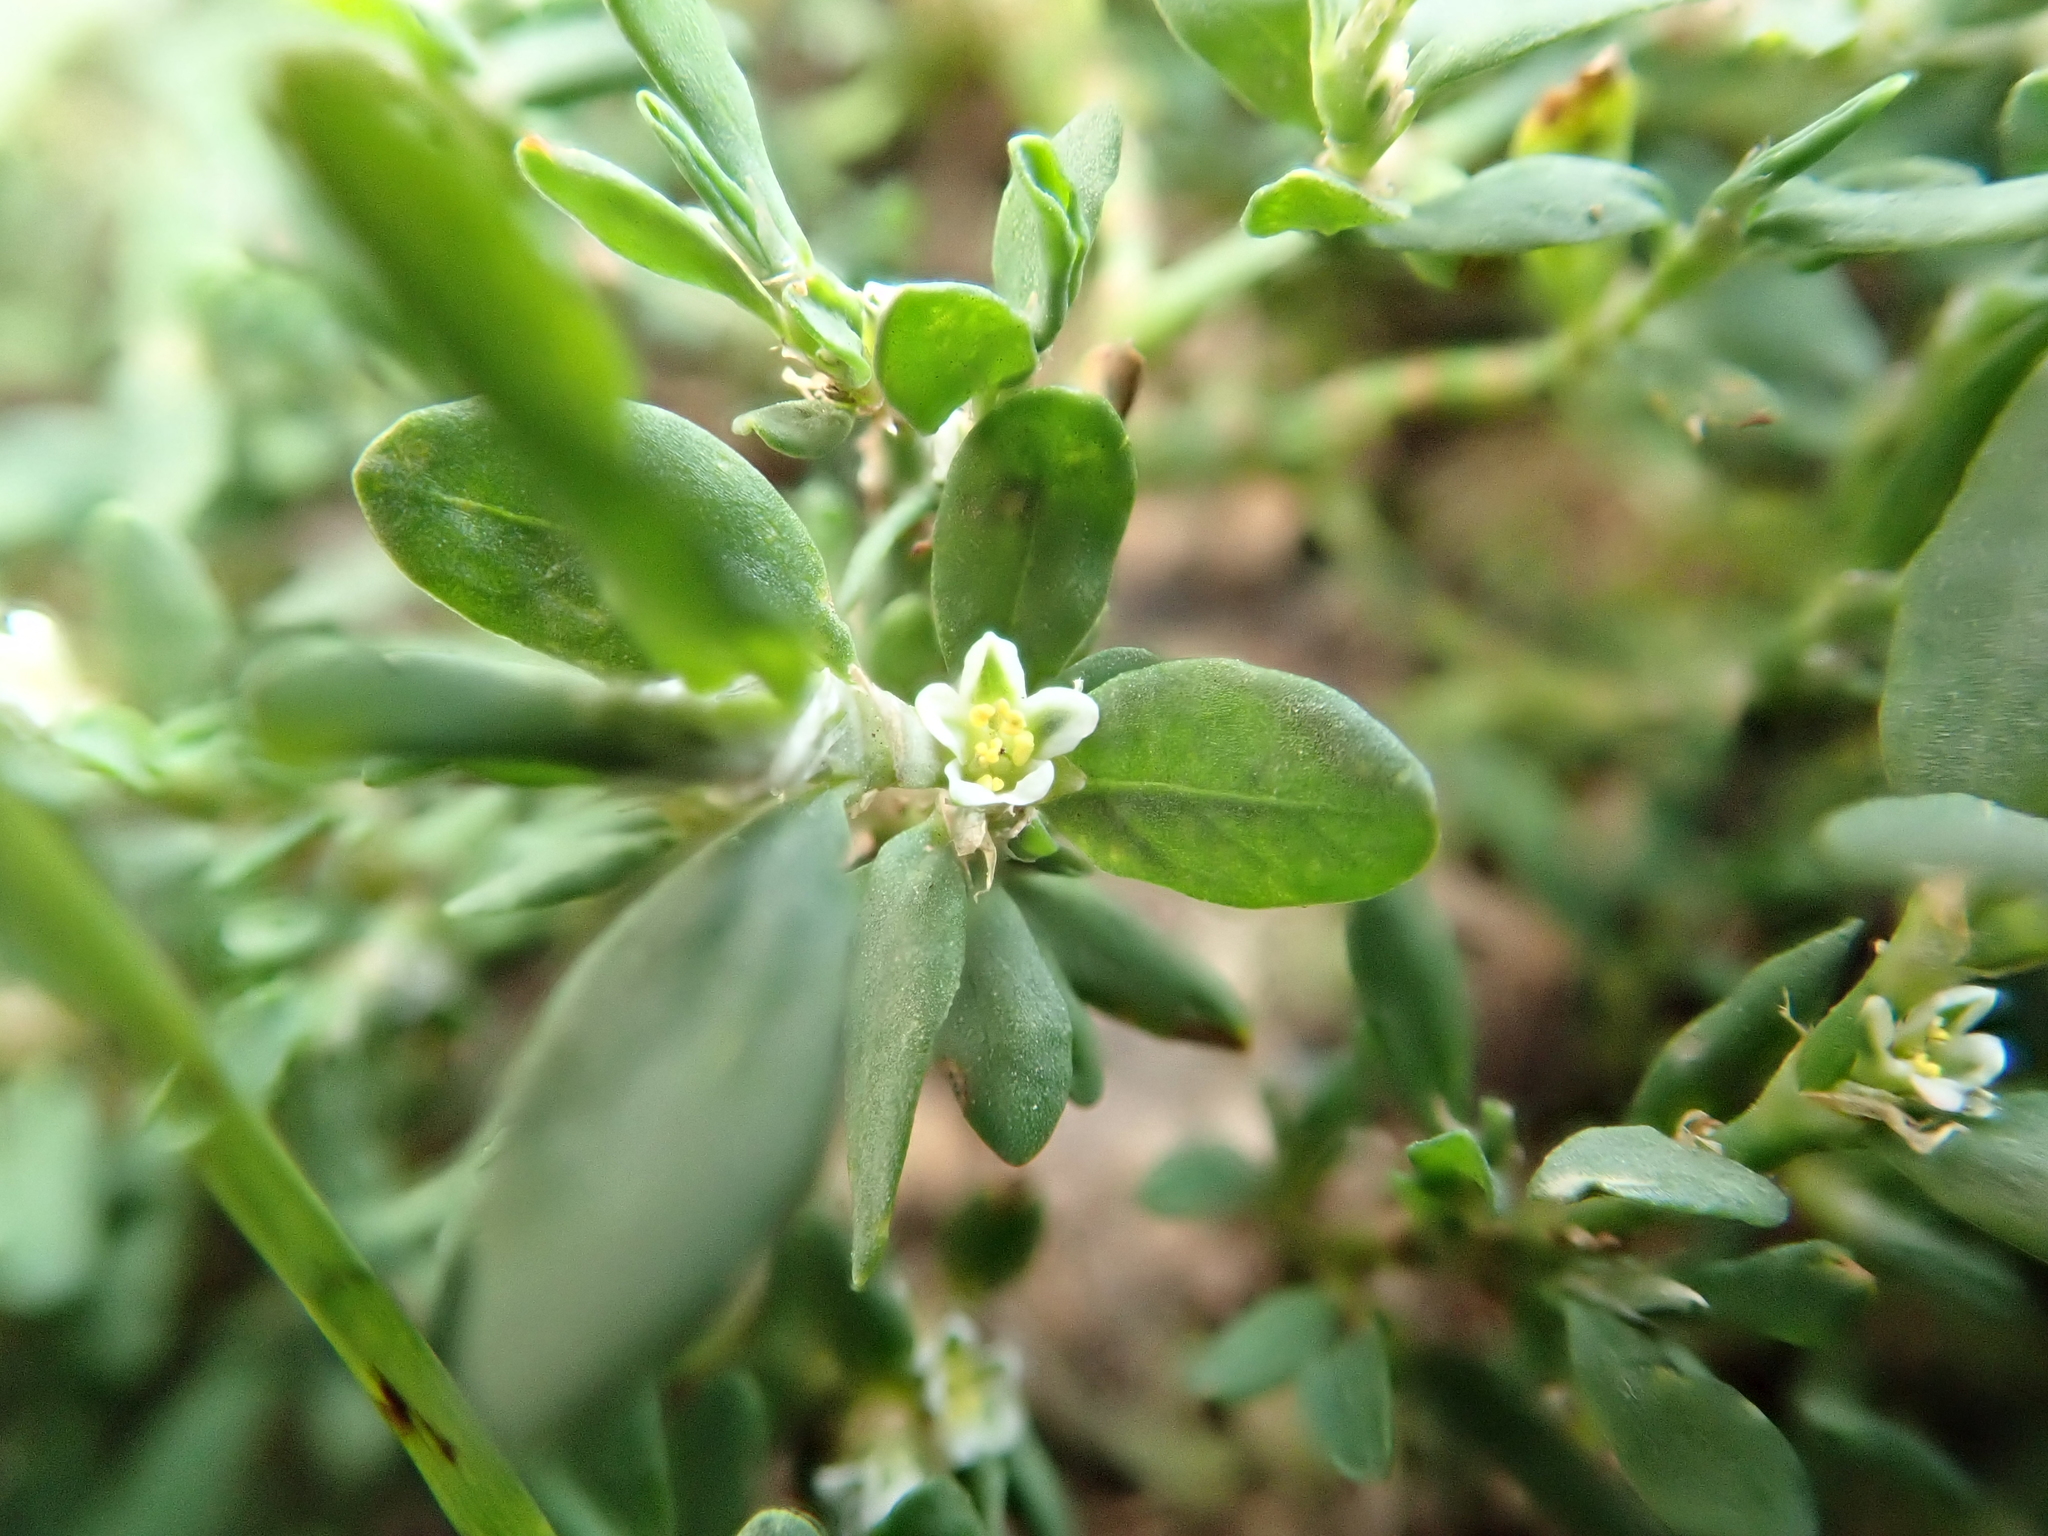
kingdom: Plantae
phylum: Tracheophyta
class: Magnoliopsida
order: Caryophyllales
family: Polygonaceae
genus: Polygonum
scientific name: Polygonum aviculare
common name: Prostrate knotweed
